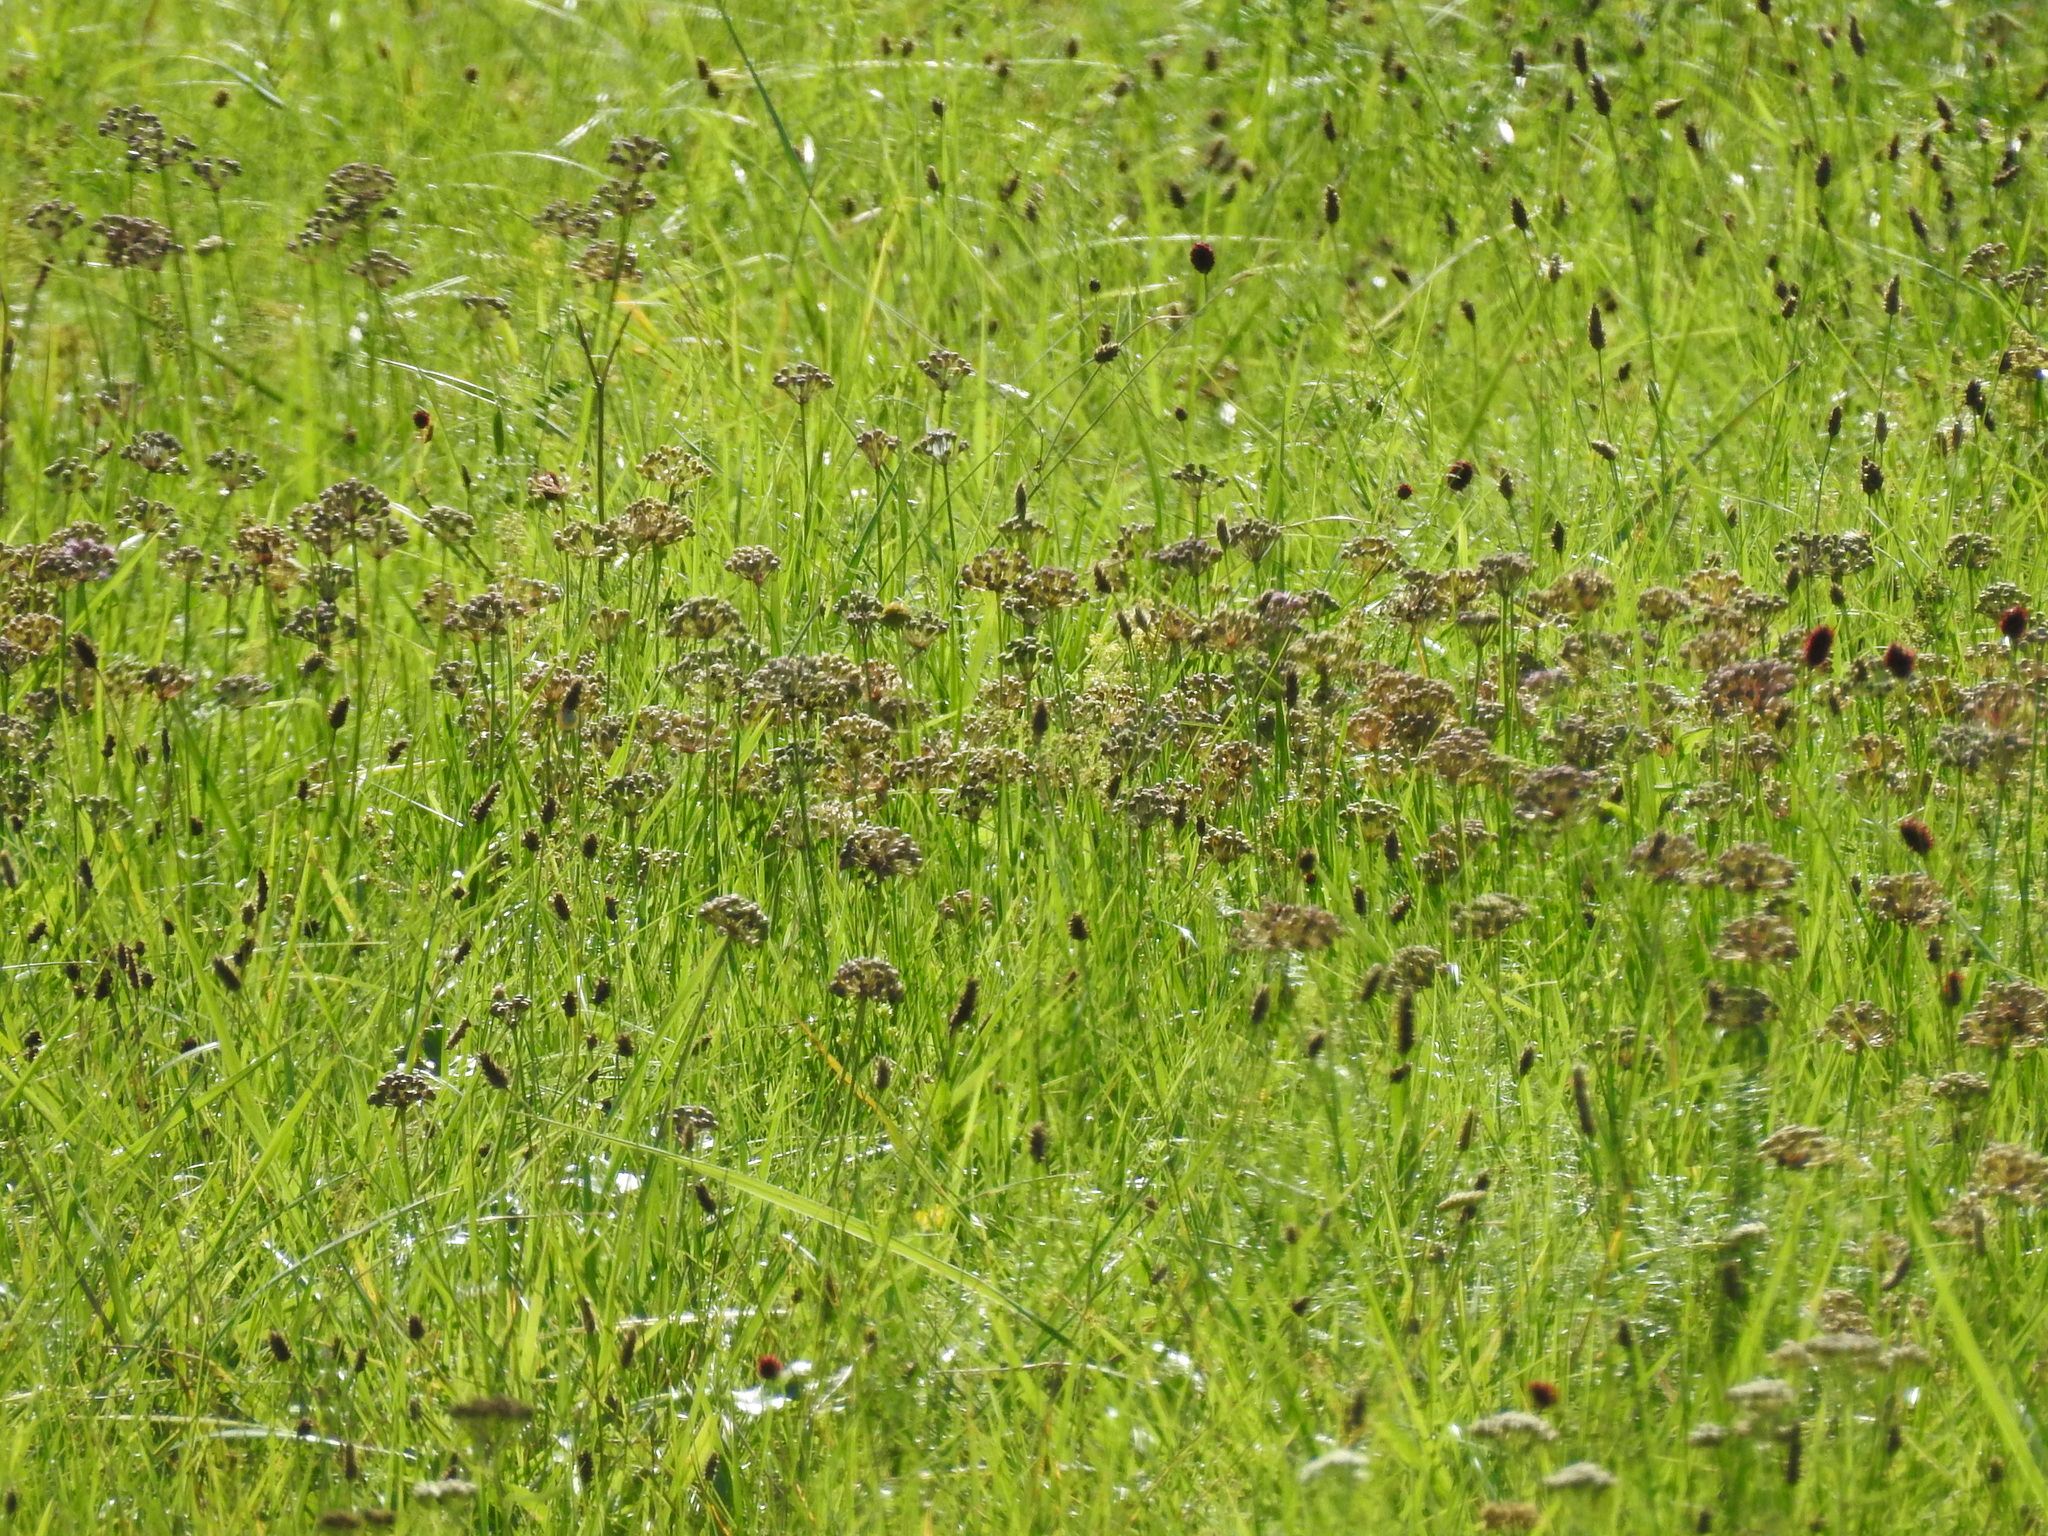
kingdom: Plantae
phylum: Tracheophyta
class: Liliopsida
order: Asparagales
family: Amaryllidaceae
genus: Allium
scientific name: Allium angulosum
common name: Mouse garlic
